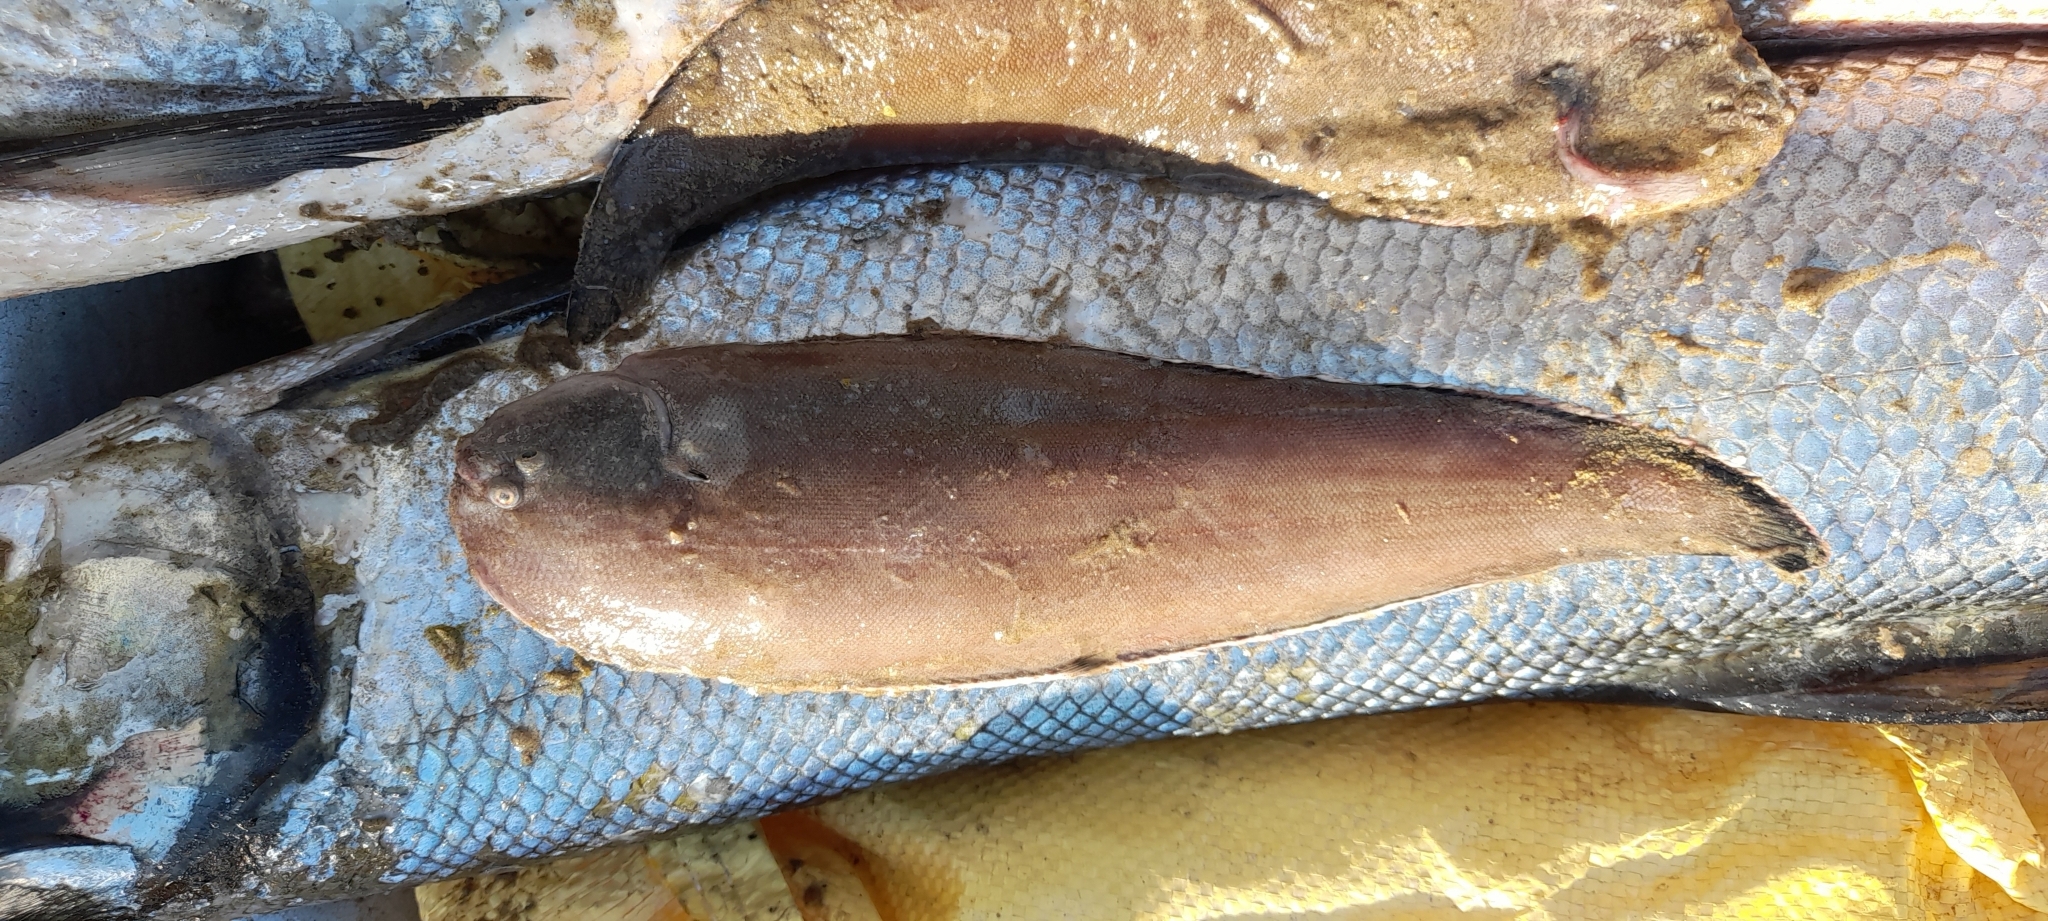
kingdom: Animalia
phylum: Chordata
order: Pleuronectiformes
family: Soleidae
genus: Synaptura
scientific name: Synaptura commersonnii
